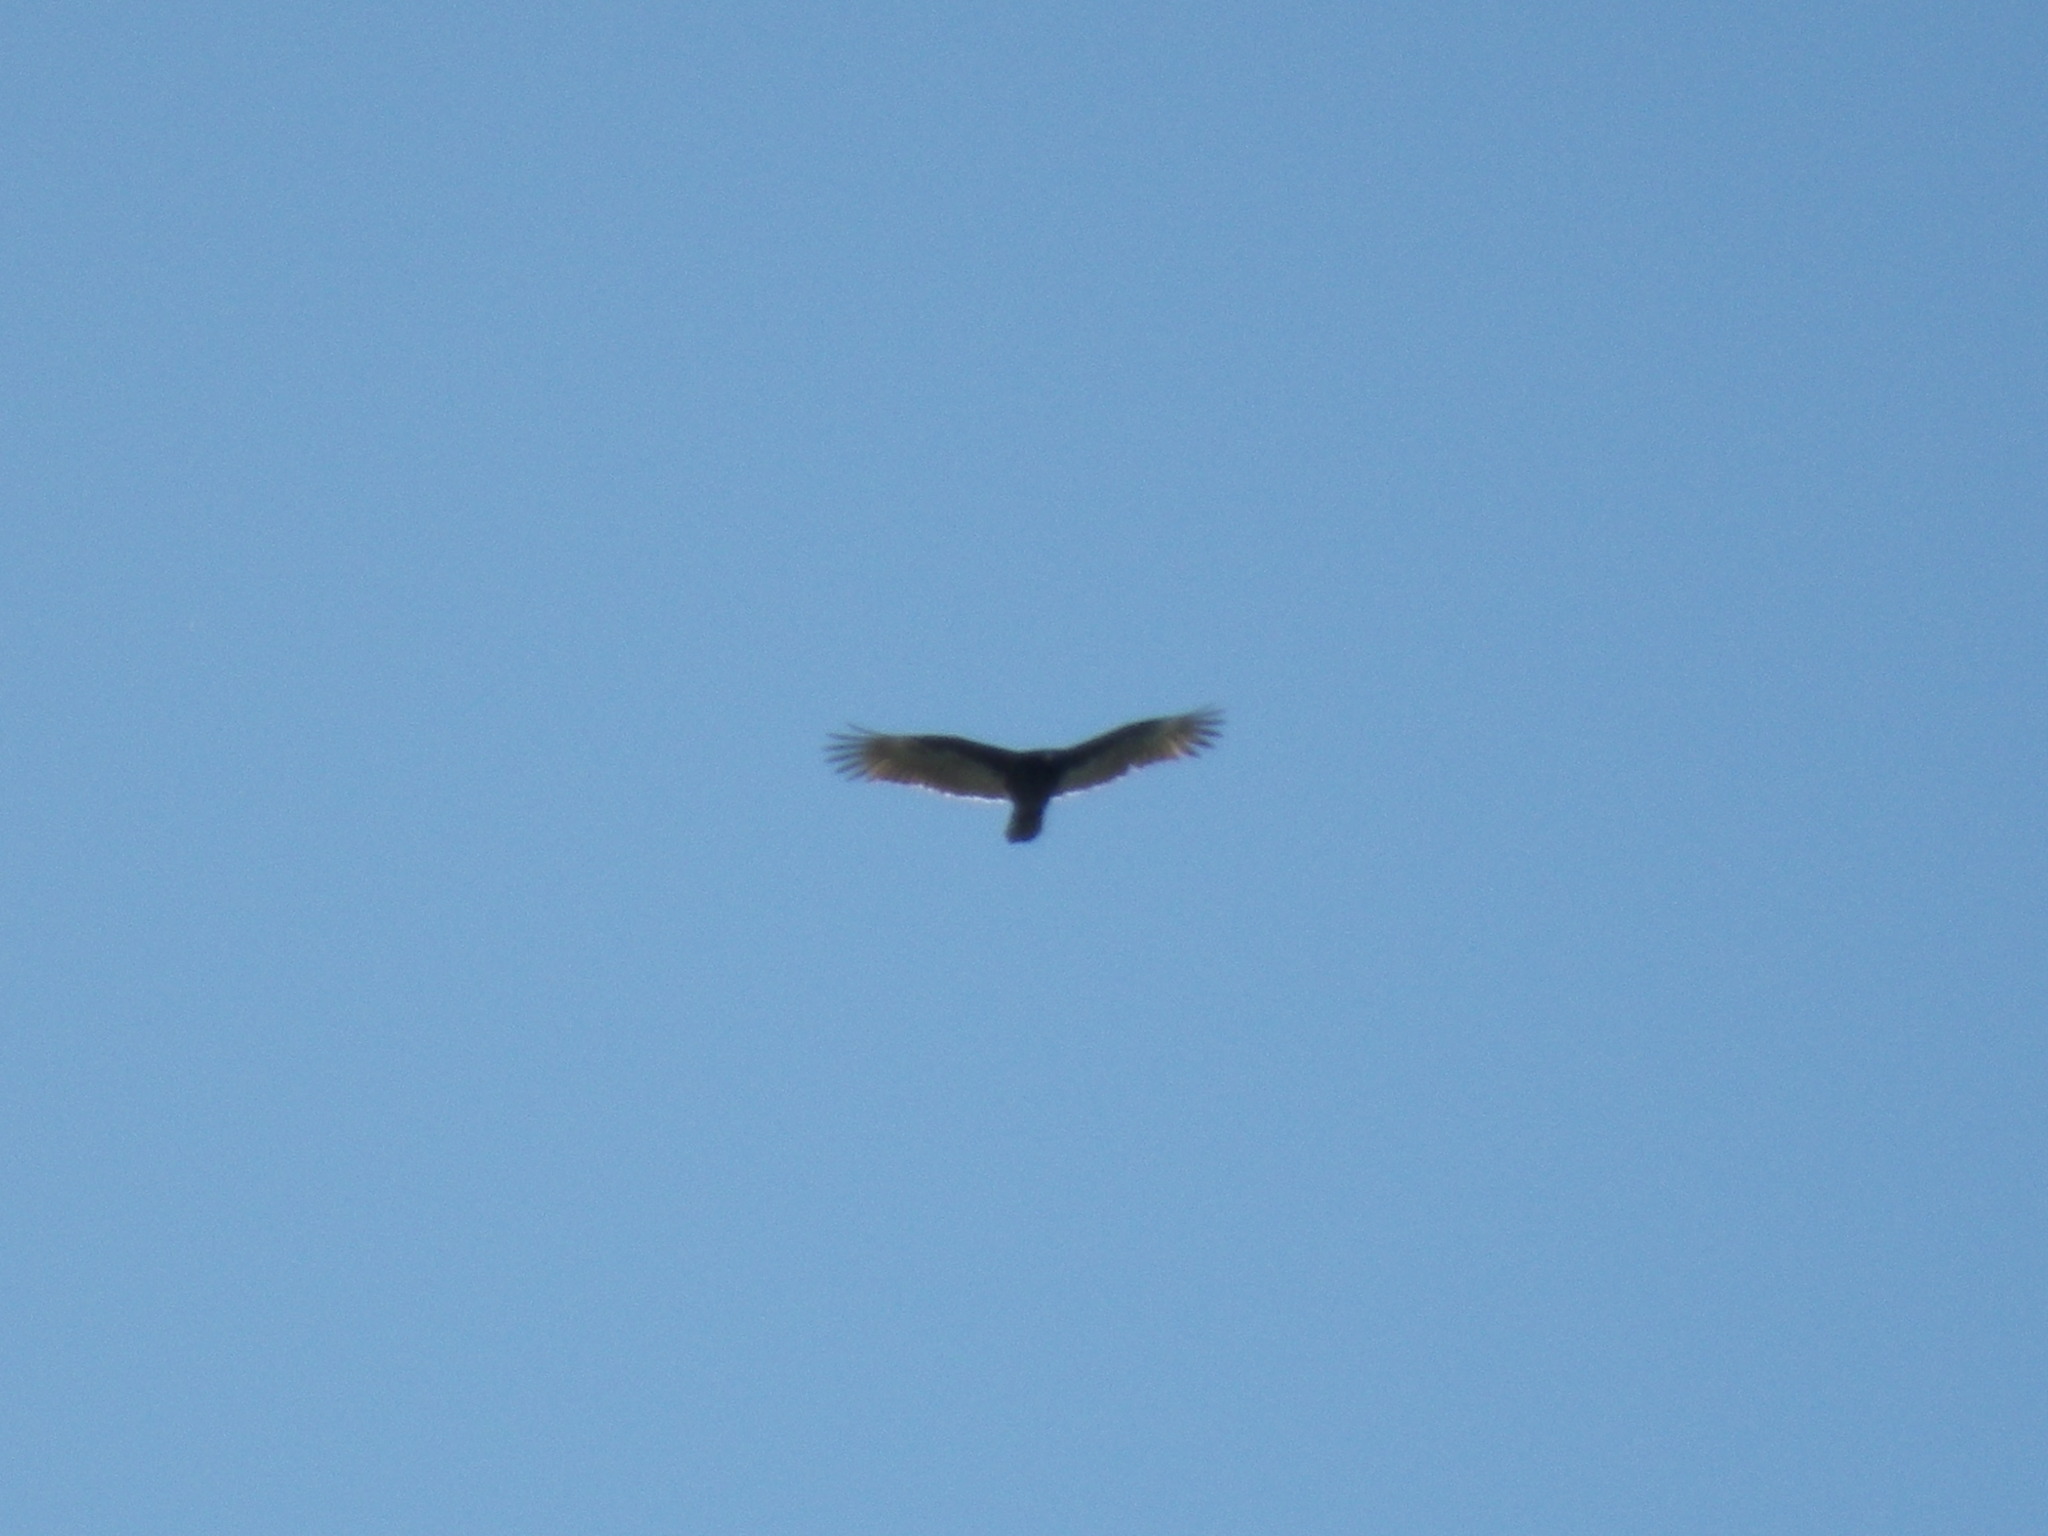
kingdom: Animalia
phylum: Chordata
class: Aves
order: Accipitriformes
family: Cathartidae
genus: Cathartes
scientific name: Cathartes aura
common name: Turkey vulture
